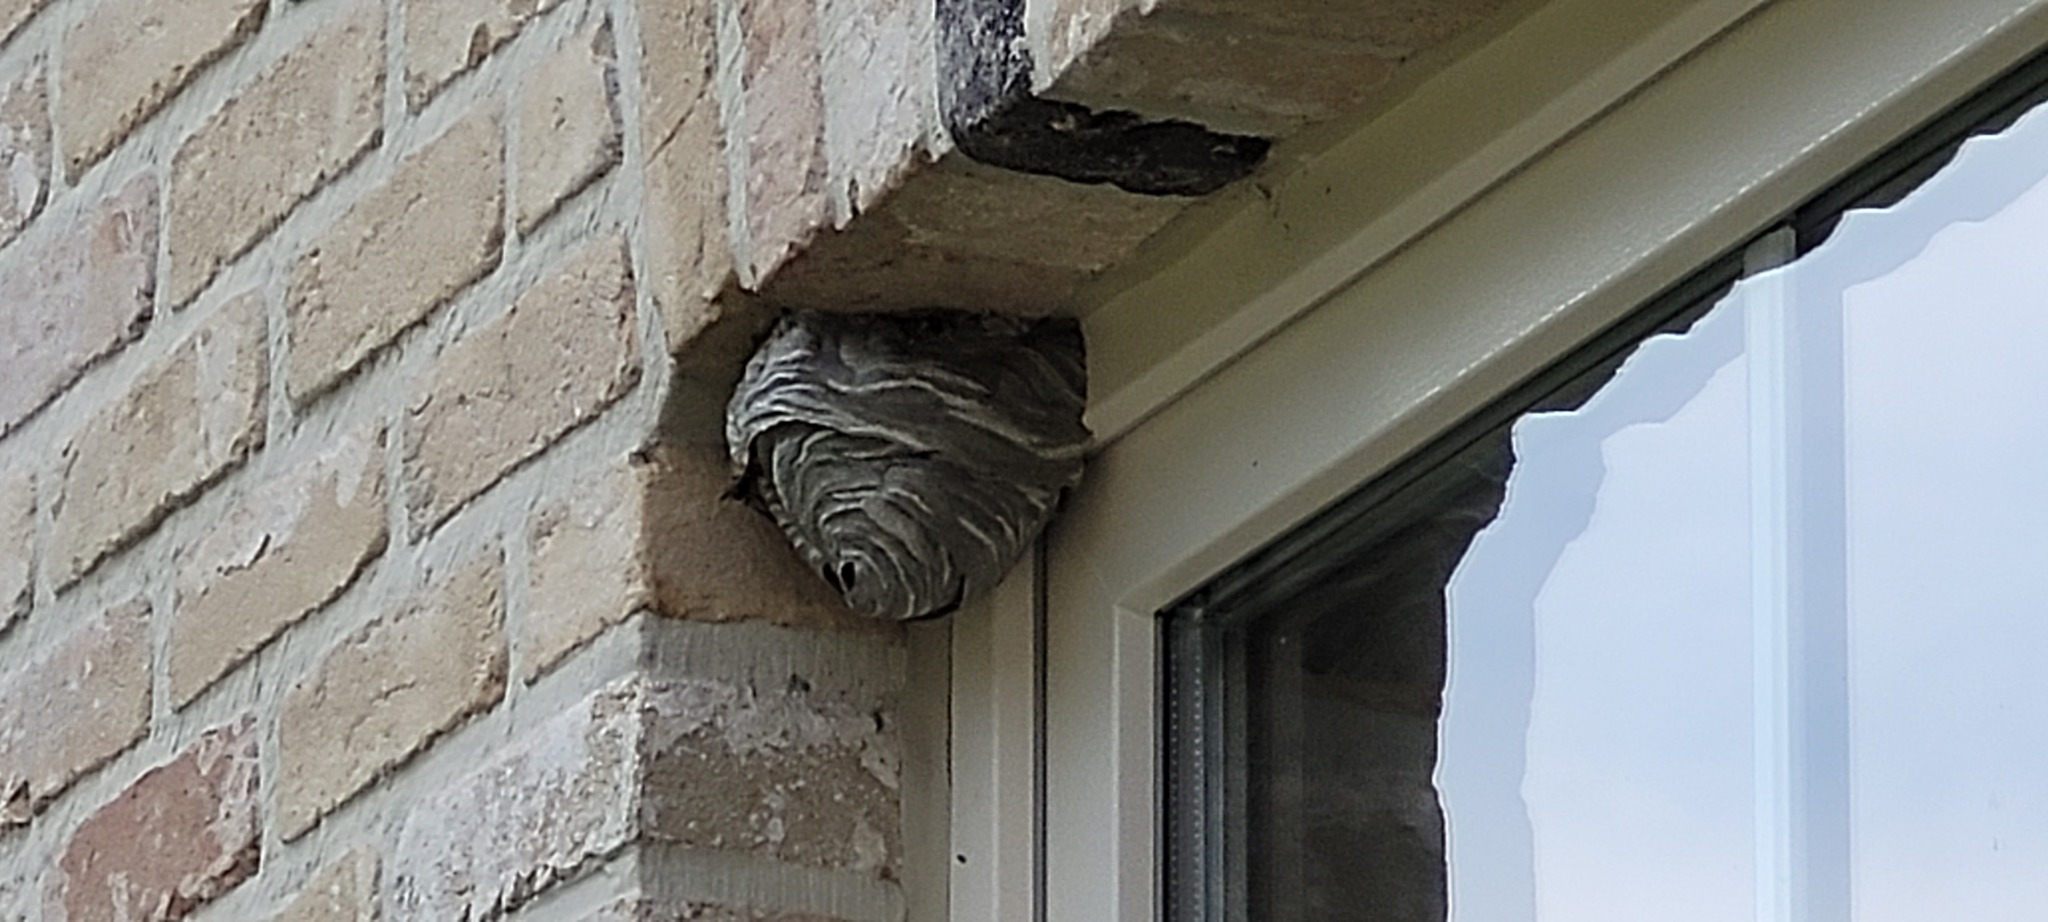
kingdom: Animalia
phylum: Arthropoda
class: Insecta
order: Hymenoptera
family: Vespidae
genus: Dolichovespula
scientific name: Dolichovespula media
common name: Median wasp
